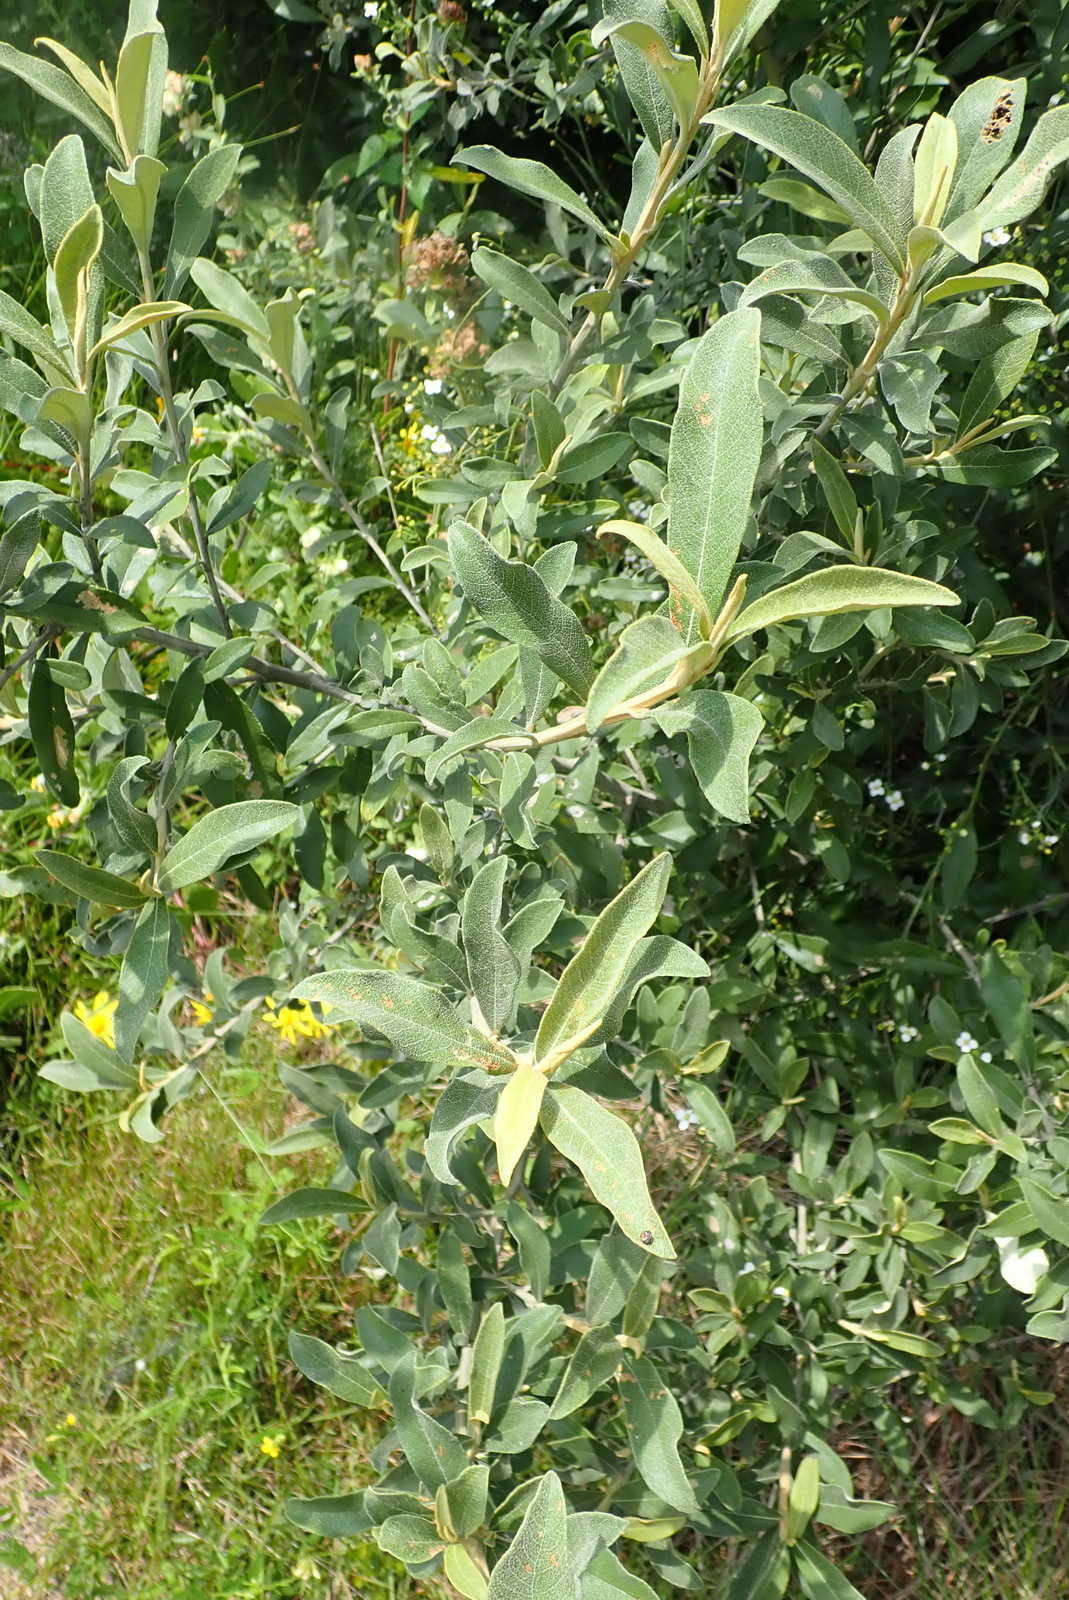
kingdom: Plantae
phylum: Tracheophyta
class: Magnoliopsida
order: Asterales
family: Asteraceae
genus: Tarchonanthus
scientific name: Tarchonanthus littoralis
